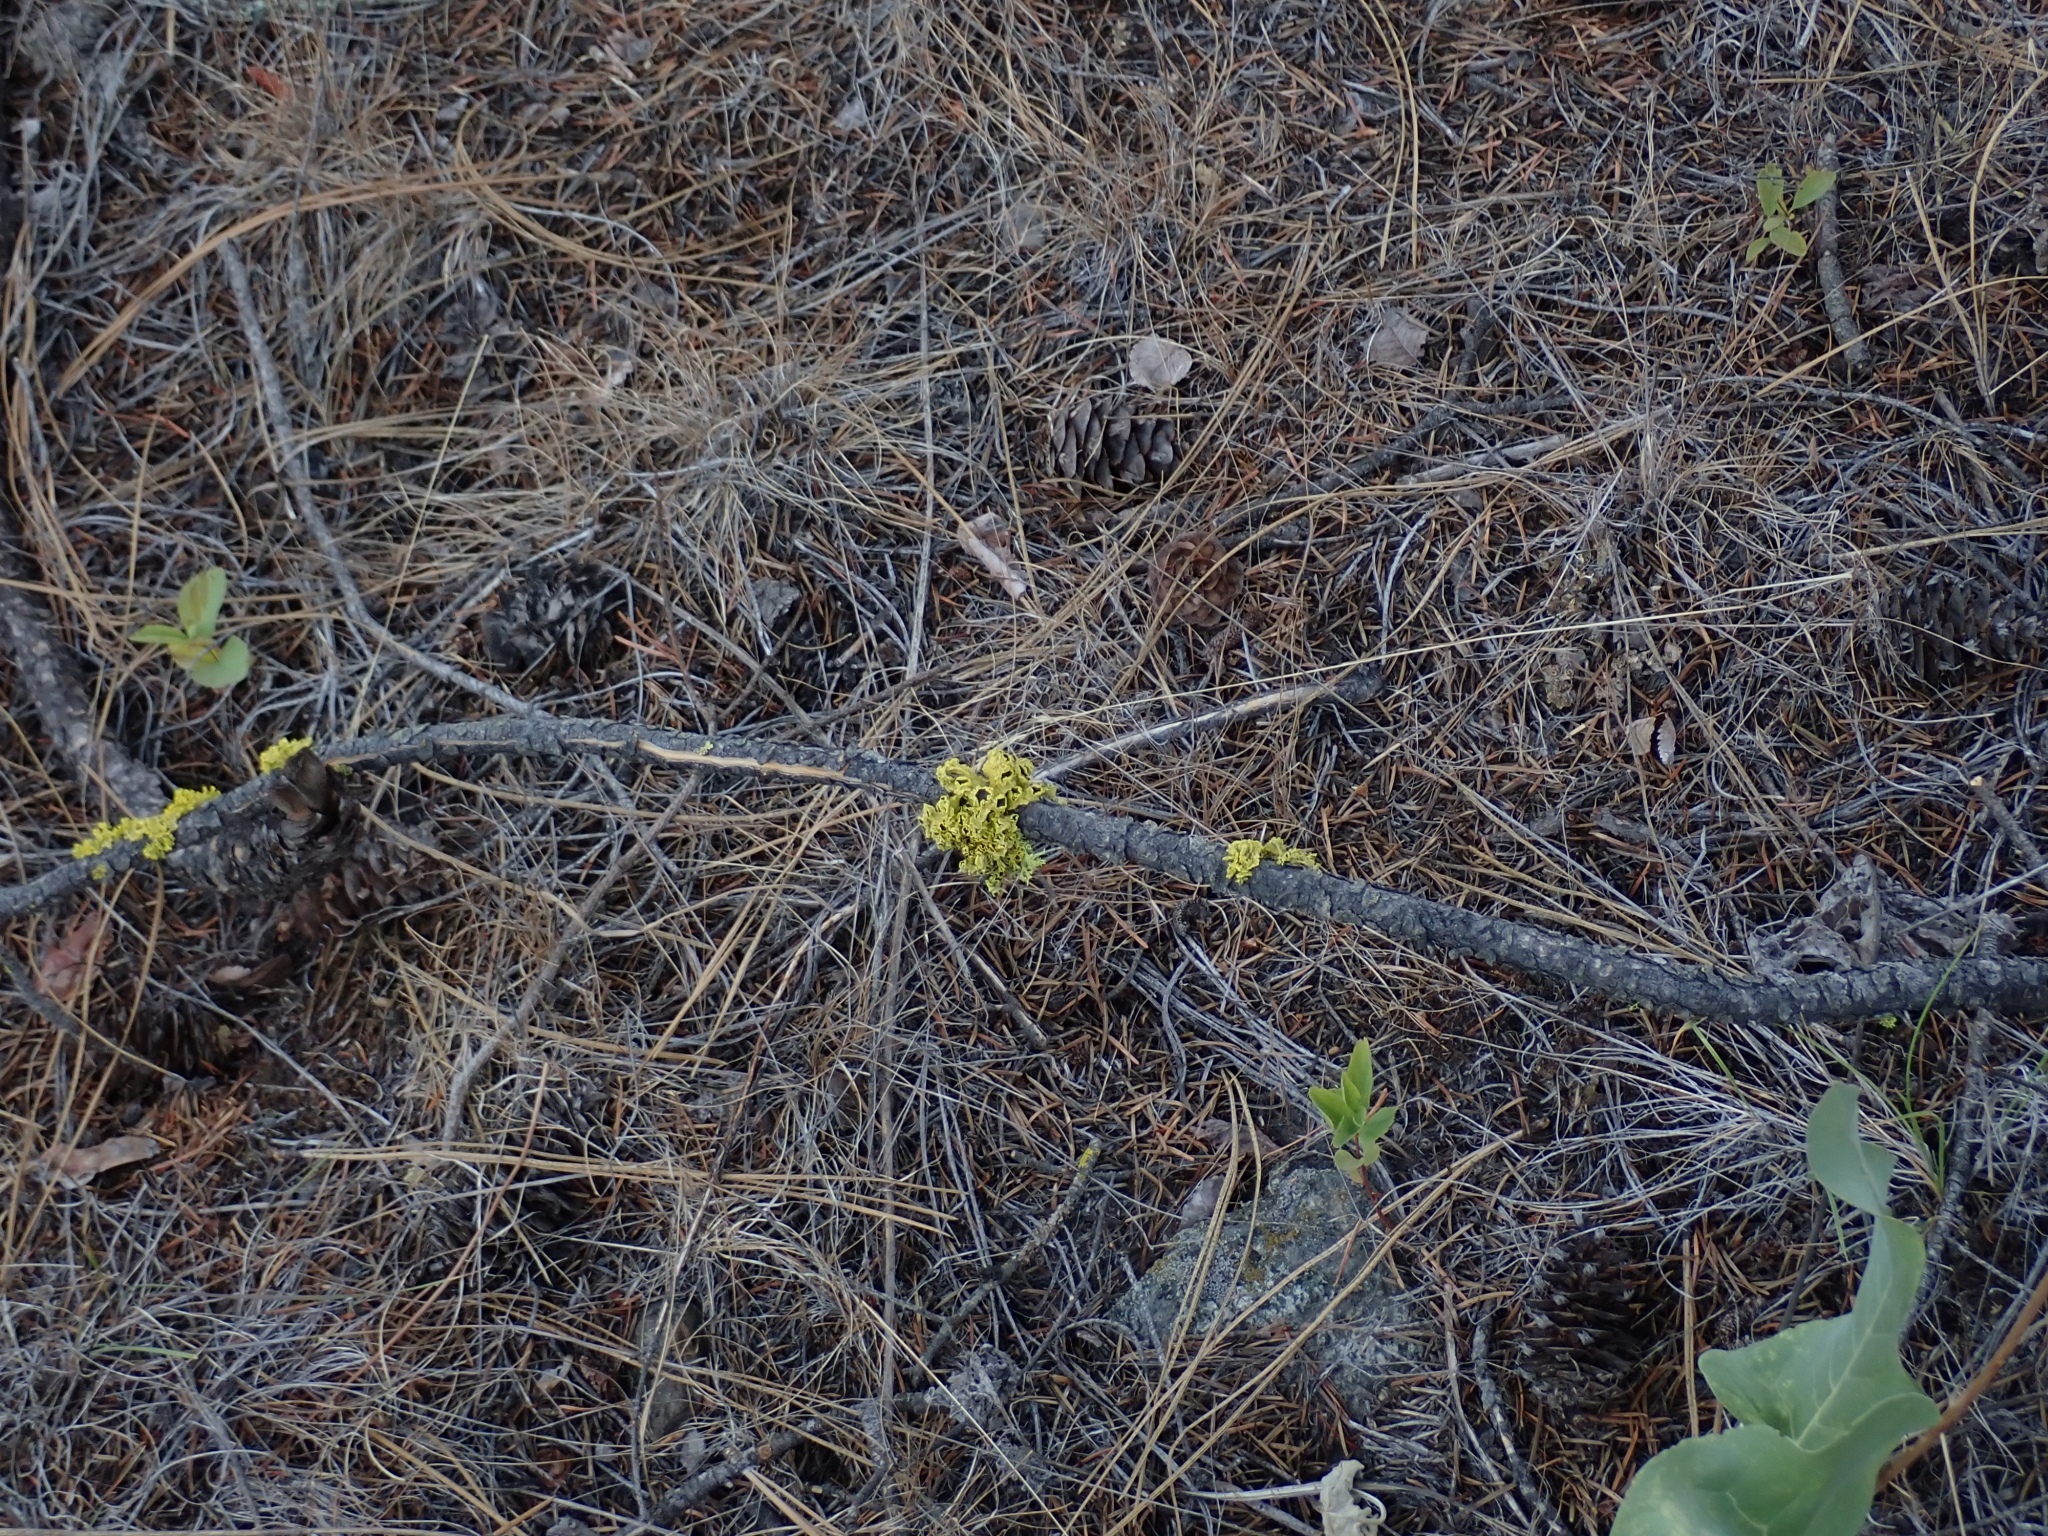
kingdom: Fungi
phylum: Ascomycota
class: Lecanoromycetes
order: Lecanorales
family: Parmeliaceae
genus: Vulpicida
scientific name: Vulpicida canadensis
